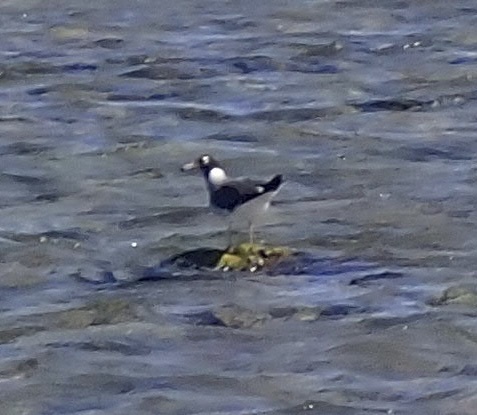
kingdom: Animalia
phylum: Chordata
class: Aves
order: Charadriiformes
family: Laridae
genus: Ichthyaetus
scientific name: Ichthyaetus leucophthalmus
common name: White-eyed gull
